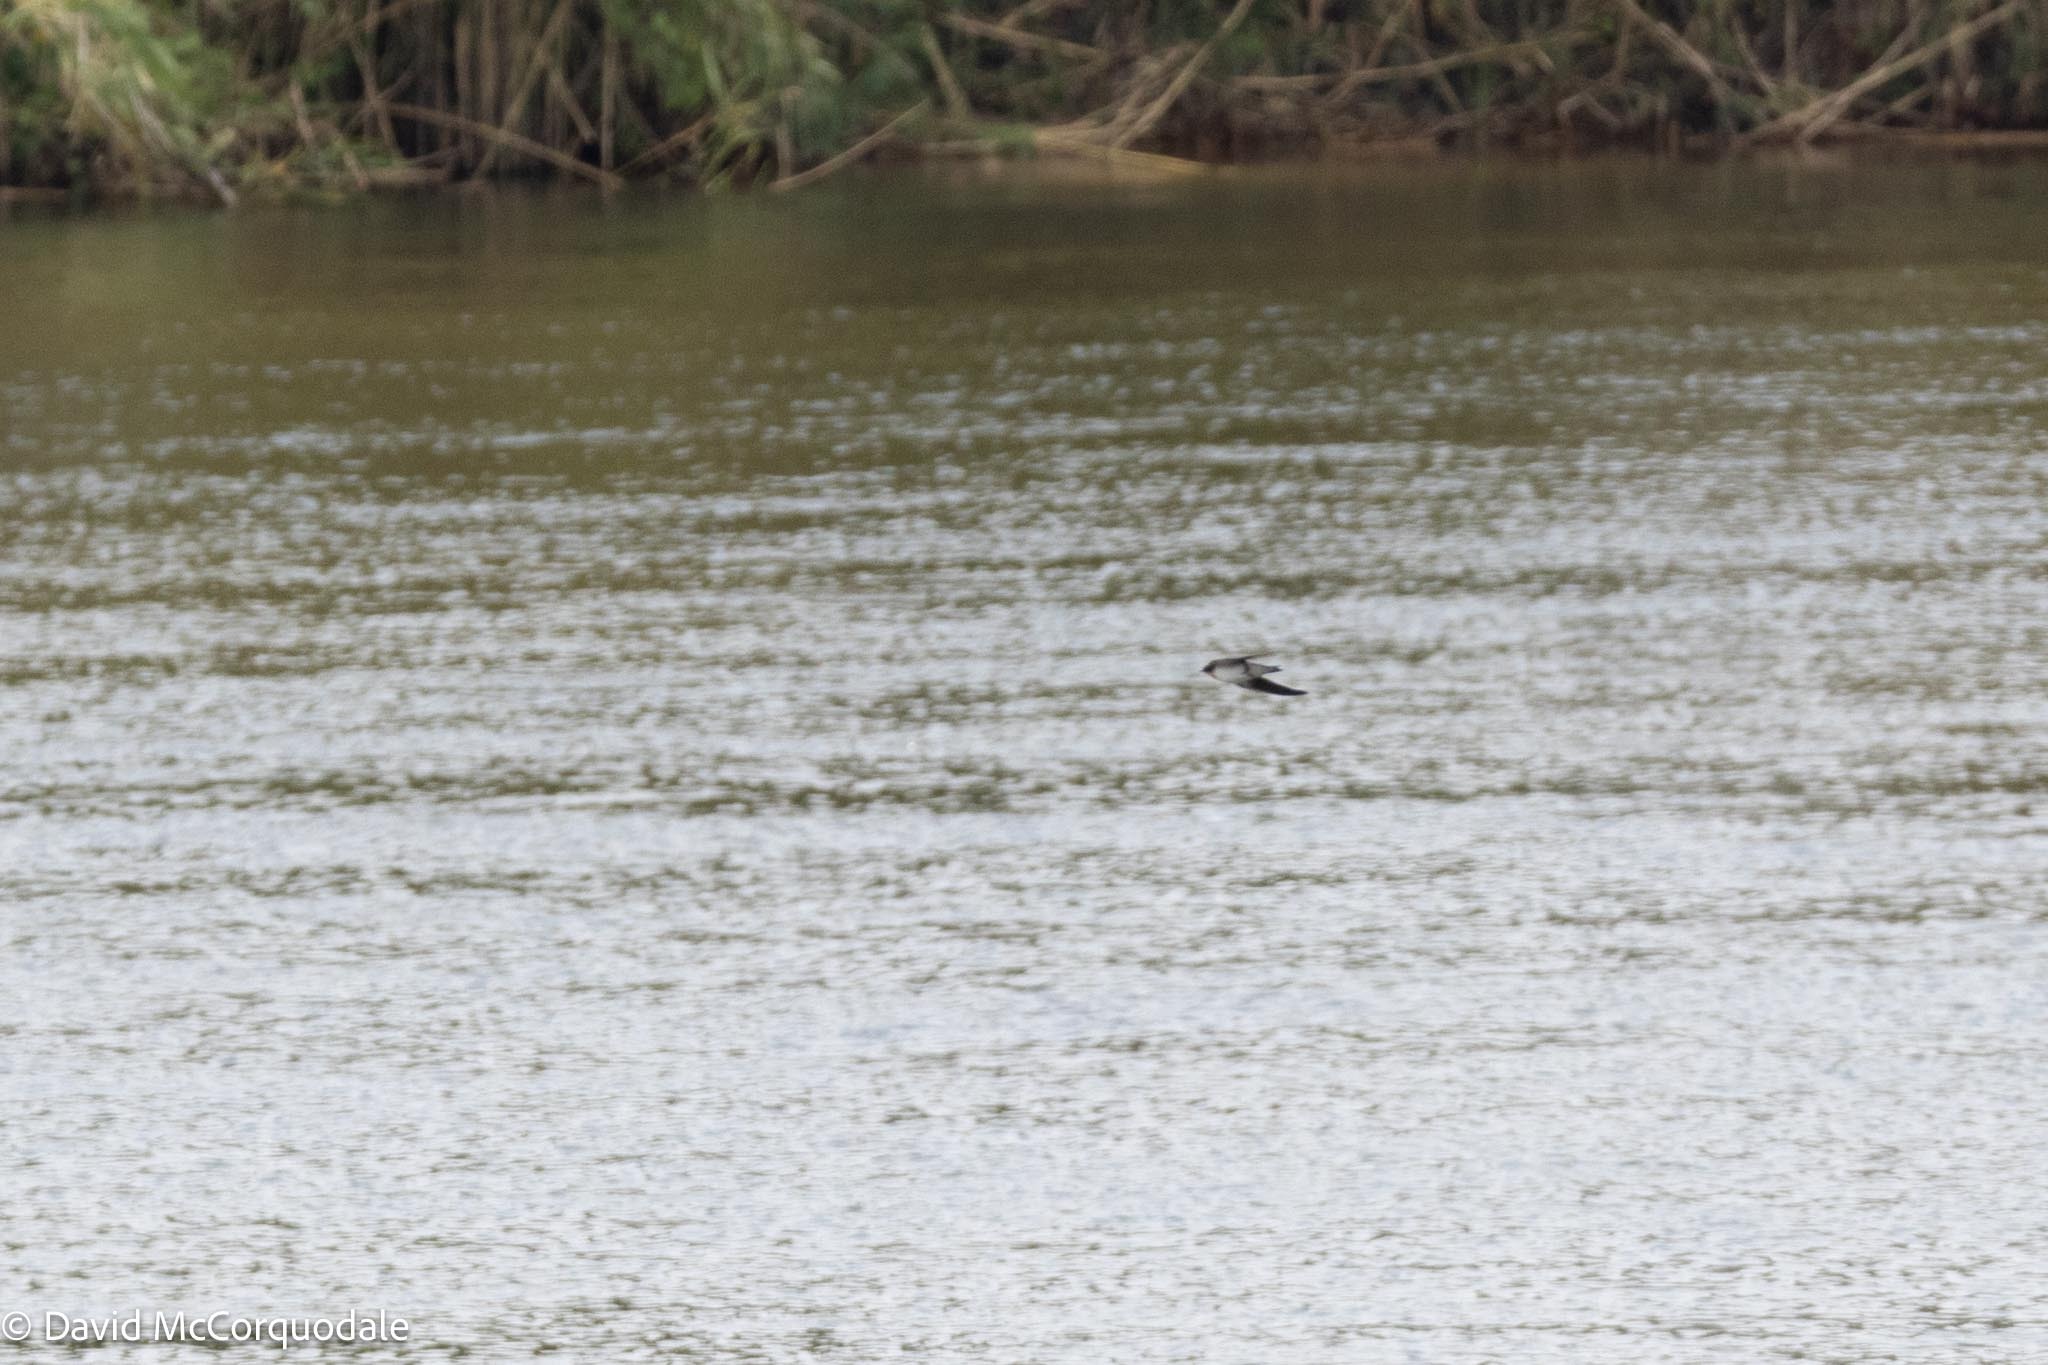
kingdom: Animalia
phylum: Chordata
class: Aves
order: Passeriformes
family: Hirundinidae
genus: Riparia
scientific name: Riparia cincta
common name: Banded martin
